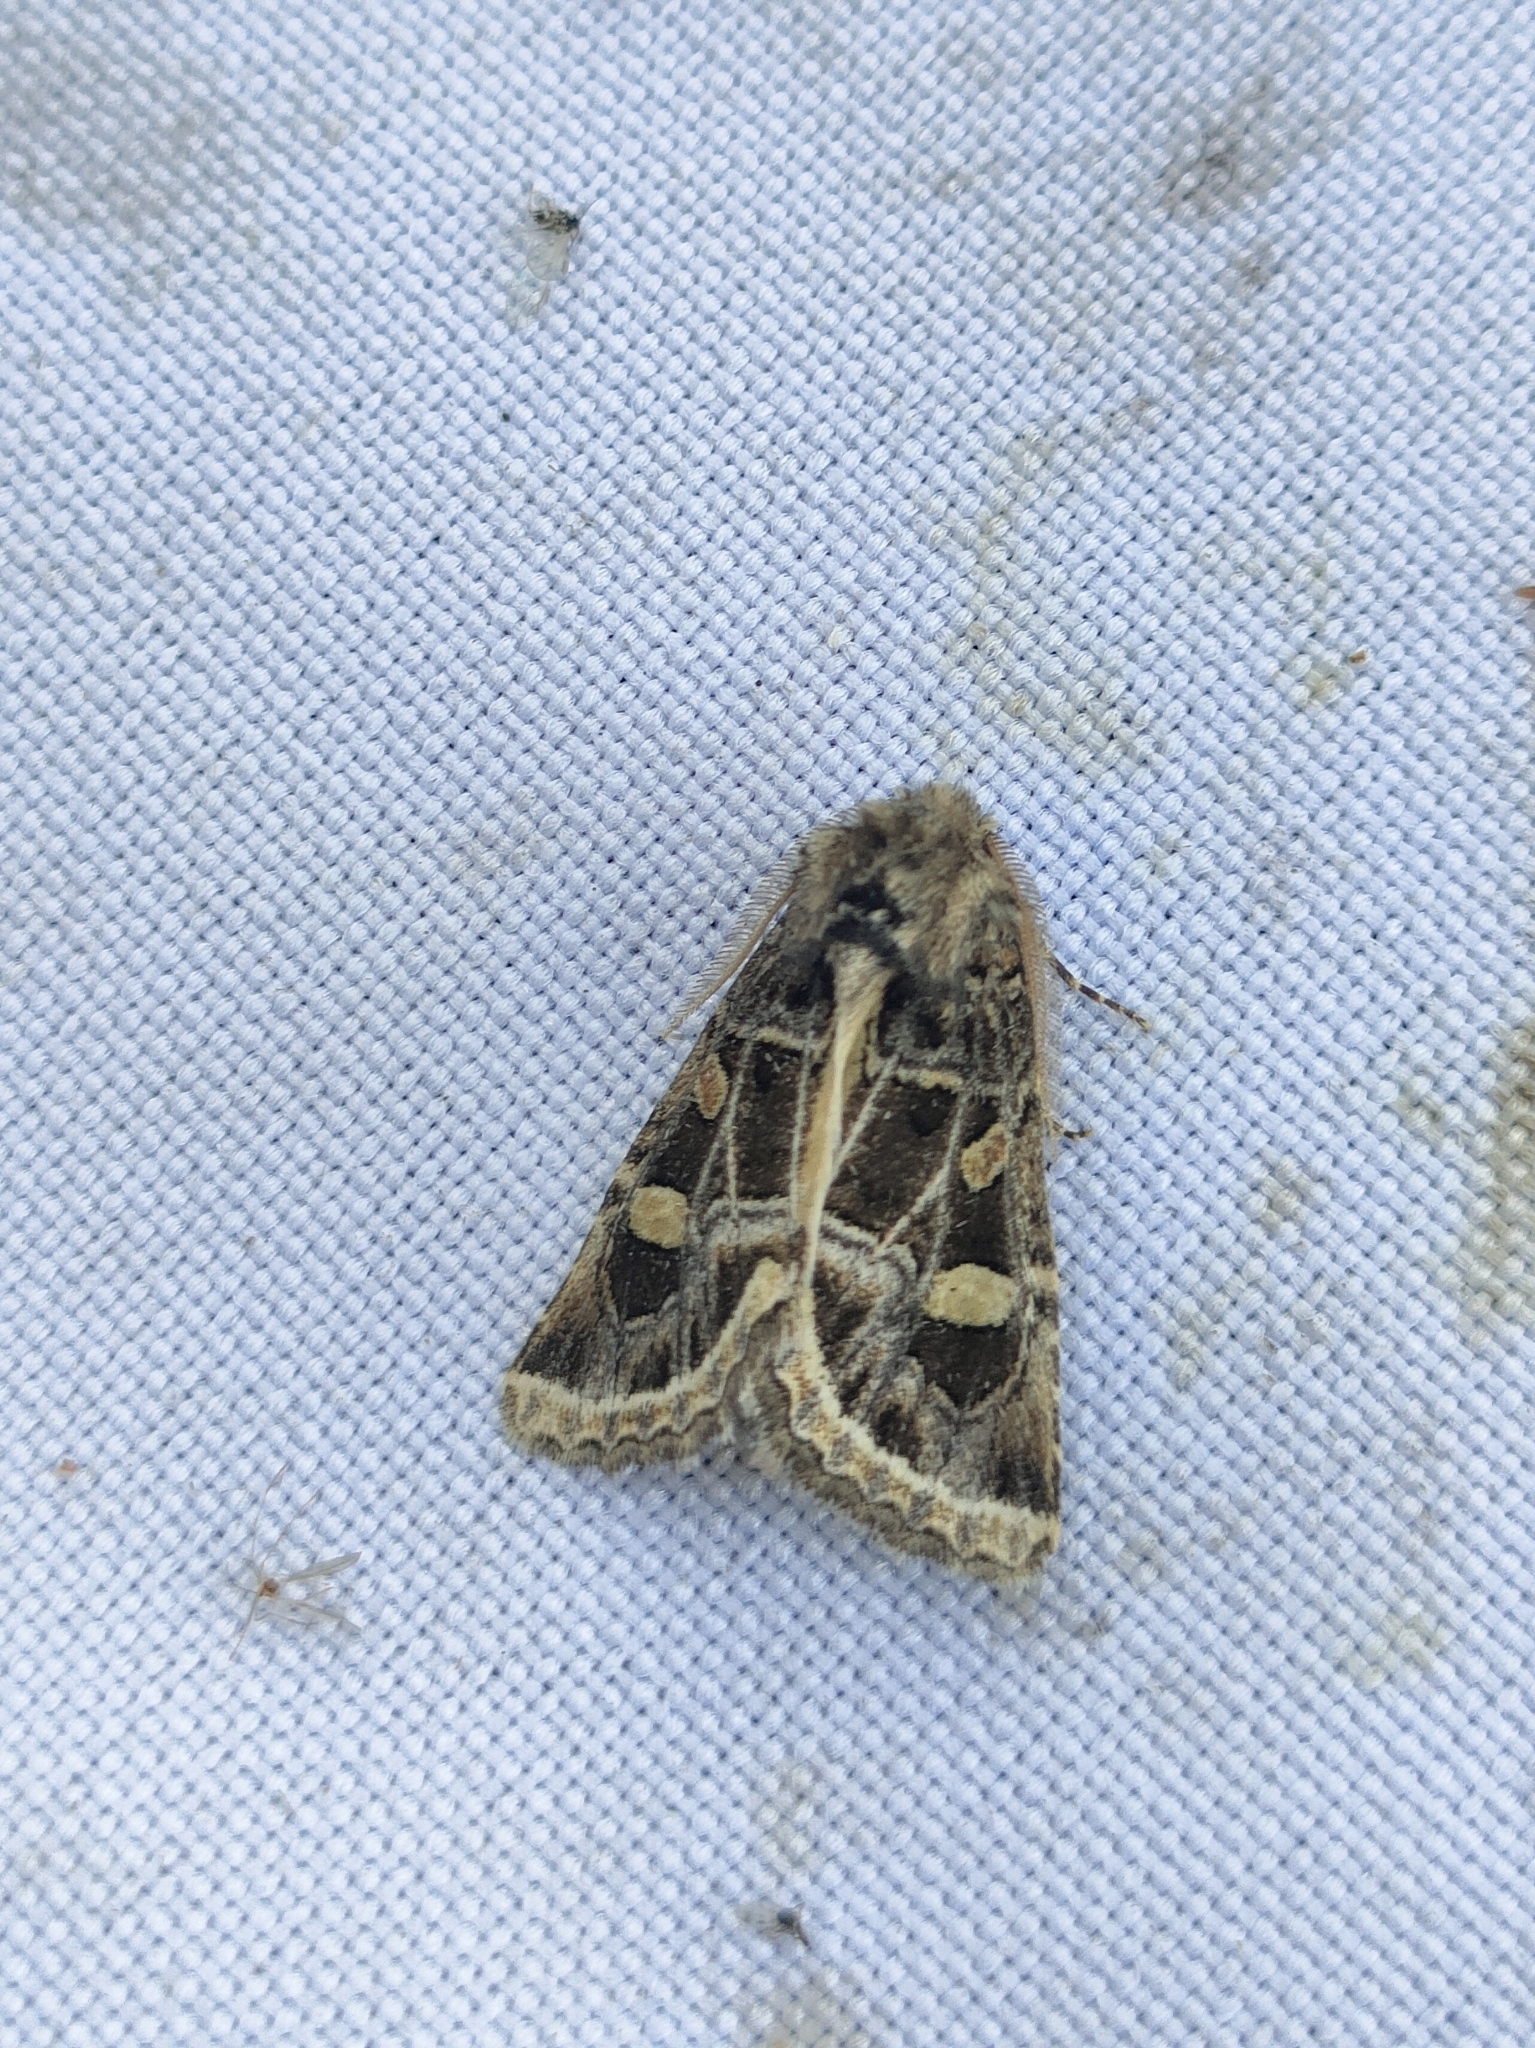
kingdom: Animalia
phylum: Arthropoda
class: Insecta
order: Lepidoptera
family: Noctuidae
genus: Leucochlaena
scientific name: Leucochlaena oditis
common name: Beautiful gothic
